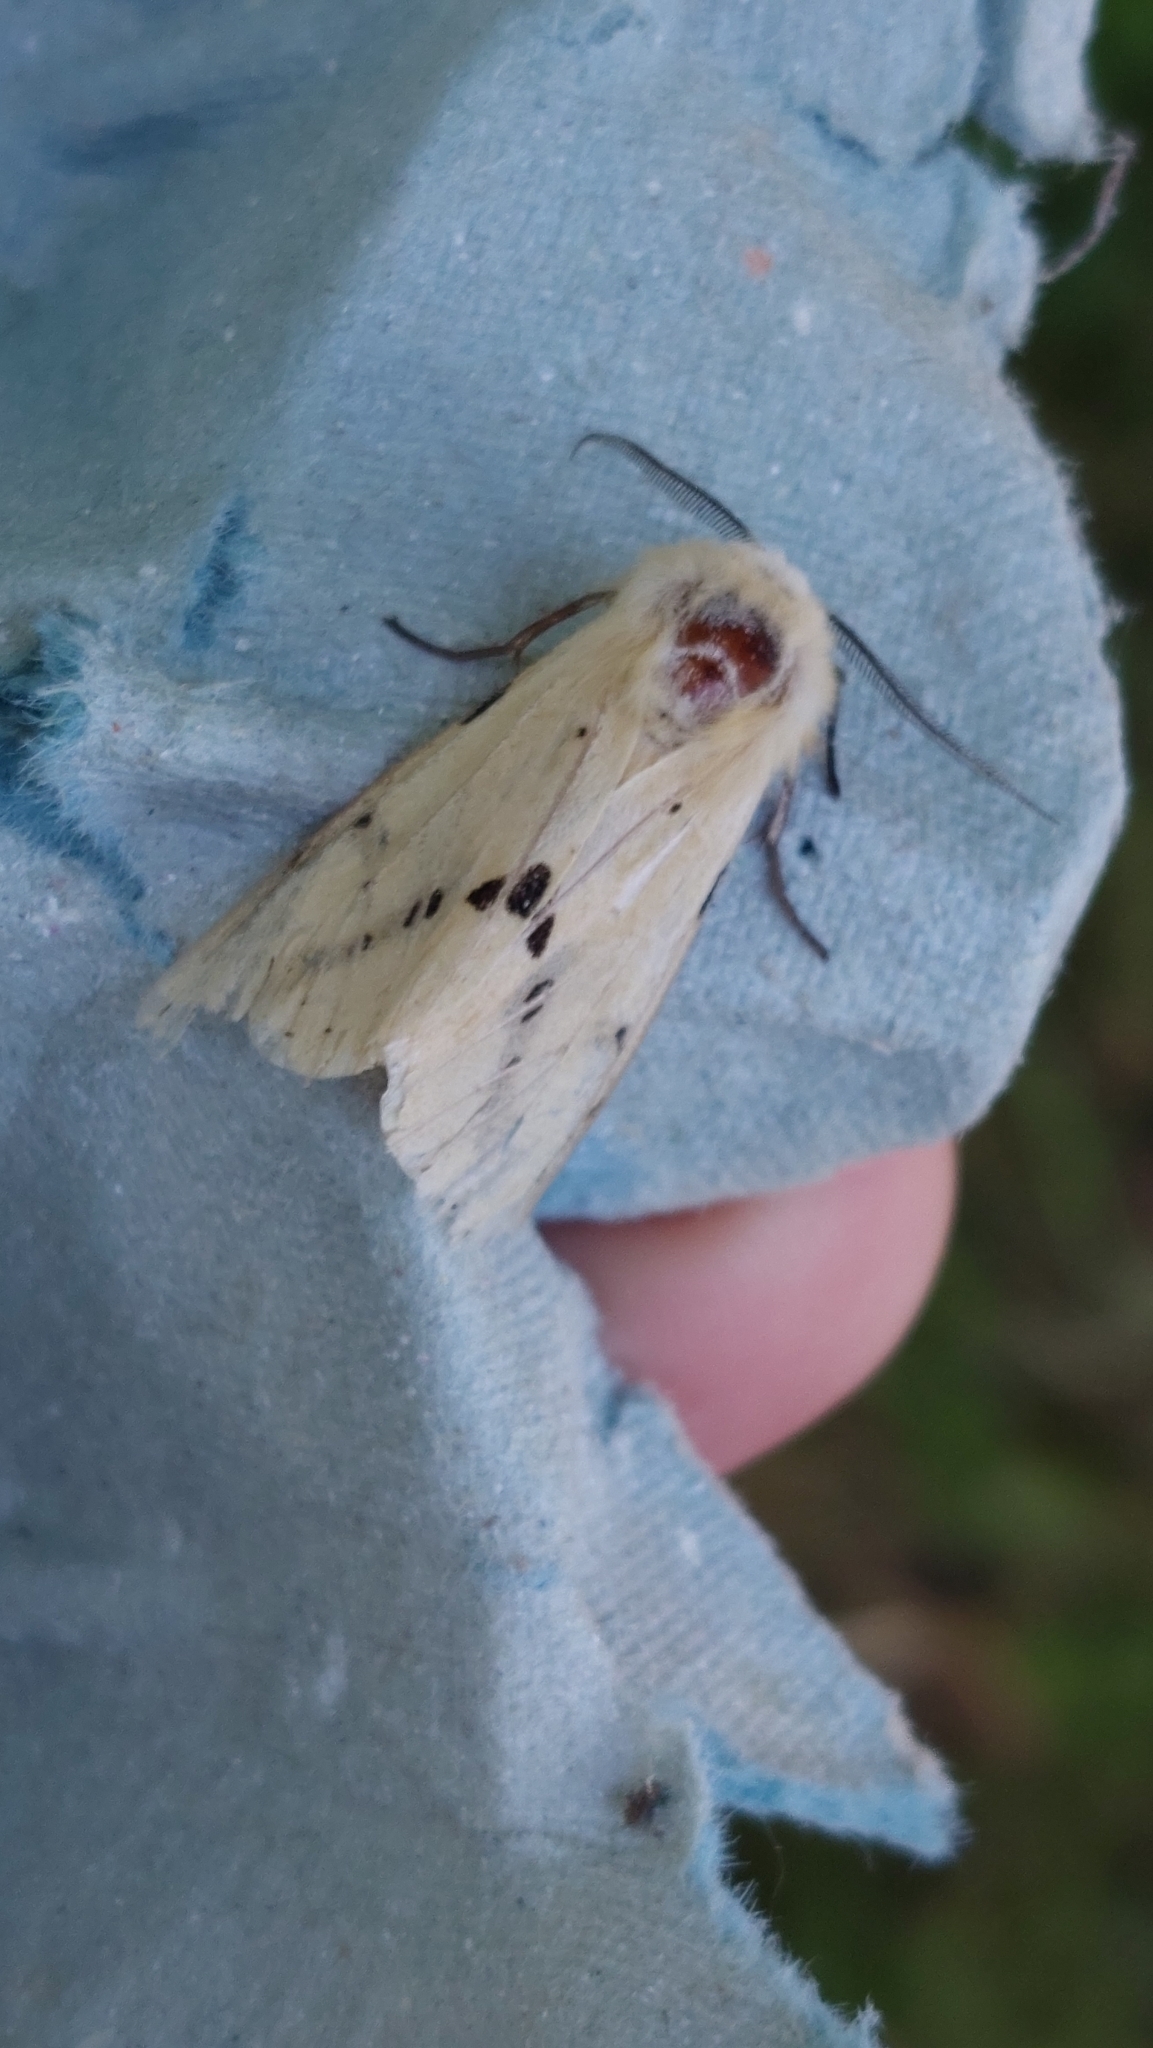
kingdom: Animalia
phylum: Arthropoda
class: Insecta
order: Lepidoptera
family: Erebidae
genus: Spilarctia
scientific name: Spilarctia lutea
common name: Buff ermine
